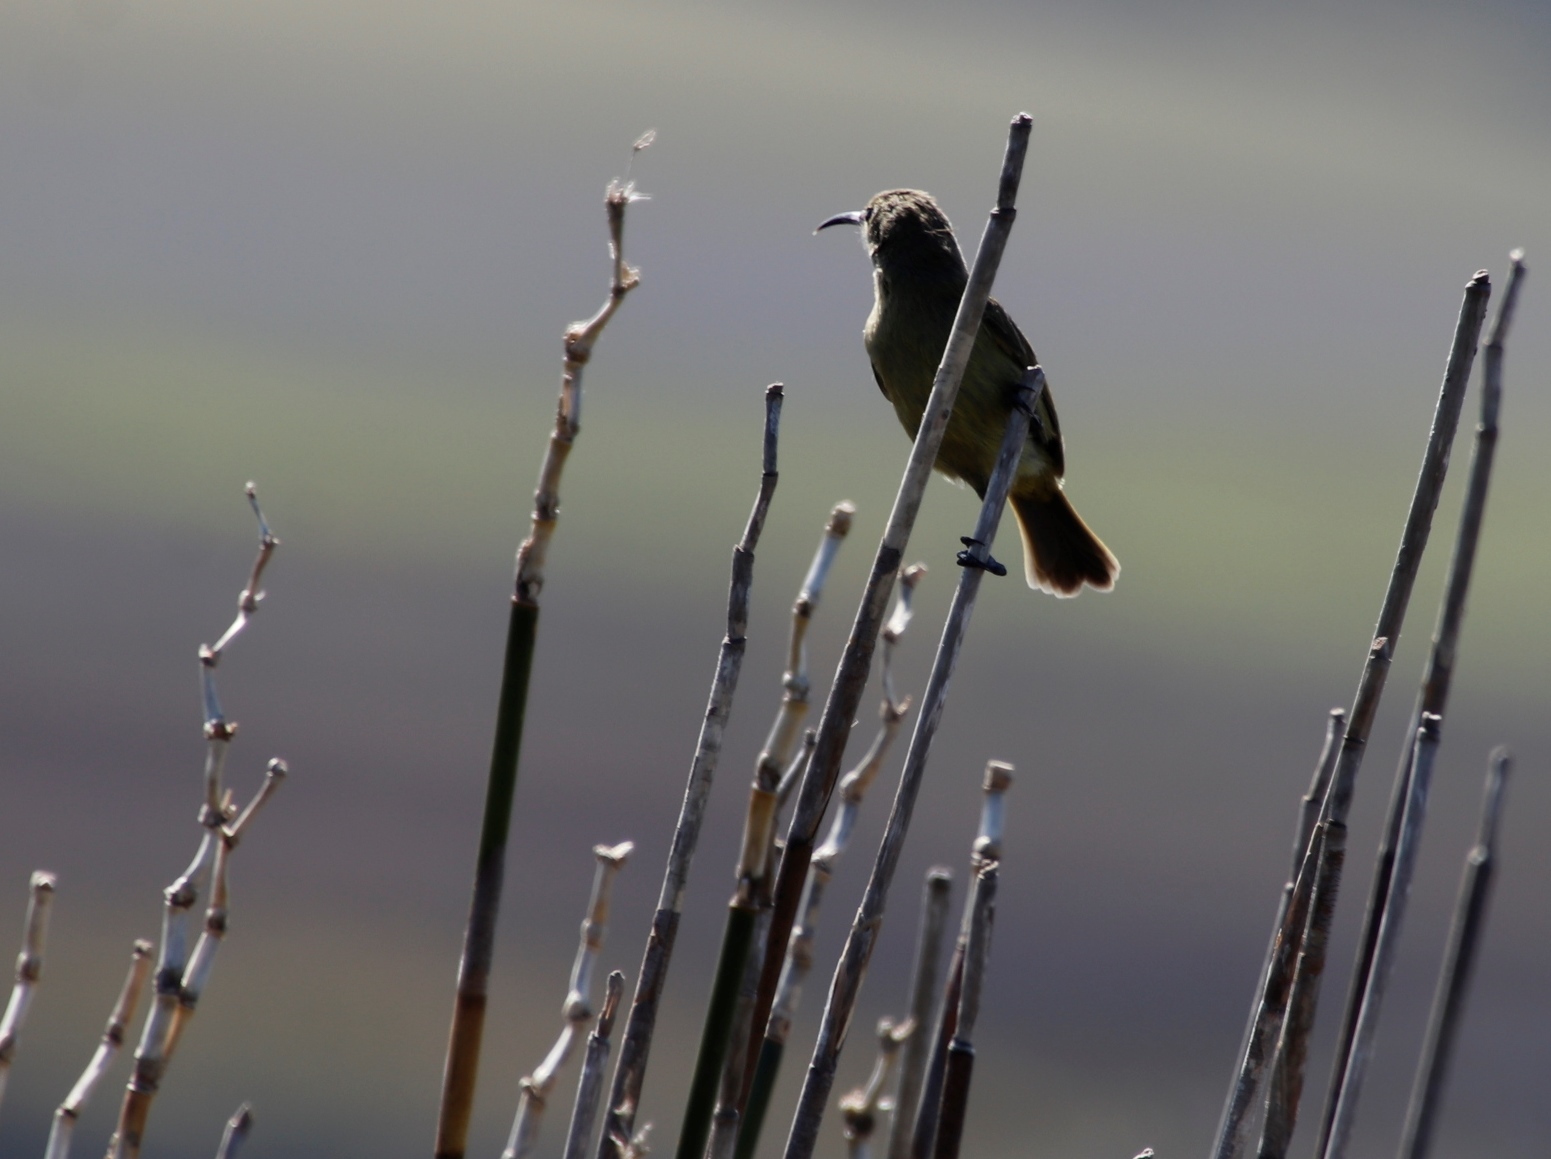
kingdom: Animalia
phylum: Chordata
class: Aves
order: Passeriformes
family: Nectariniidae
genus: Nectarinia
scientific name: Nectarinia famosa
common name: Malachite sunbird
